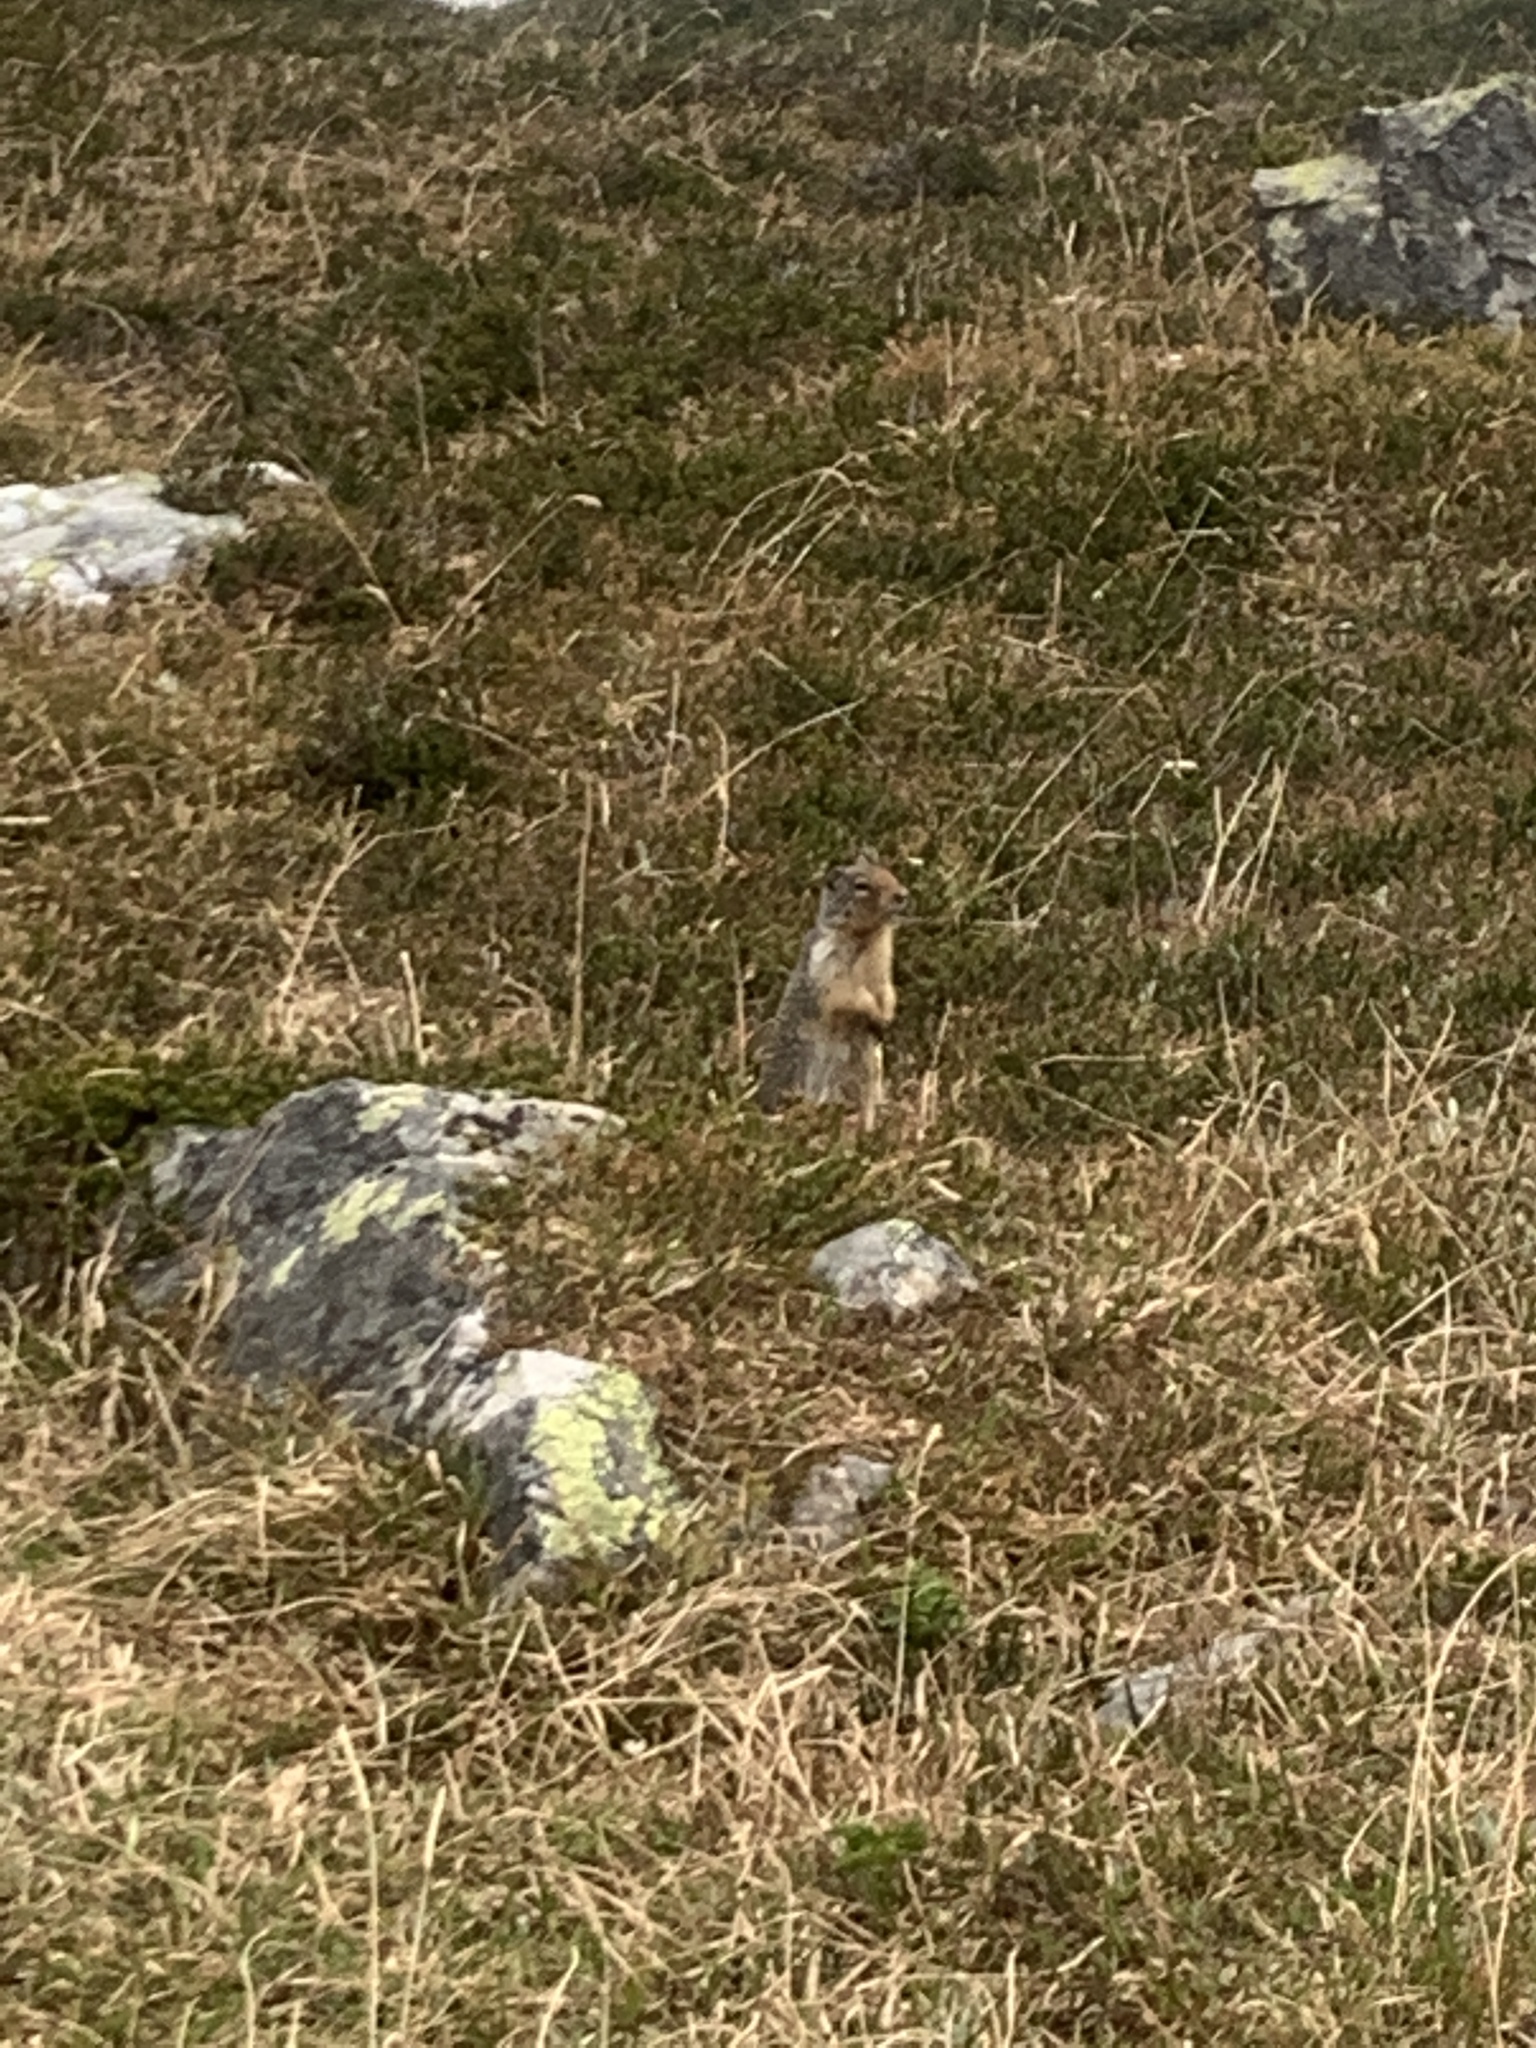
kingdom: Animalia
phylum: Chordata
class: Mammalia
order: Rodentia
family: Sciuridae
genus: Urocitellus
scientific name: Urocitellus columbianus
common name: Columbian ground squirrel
